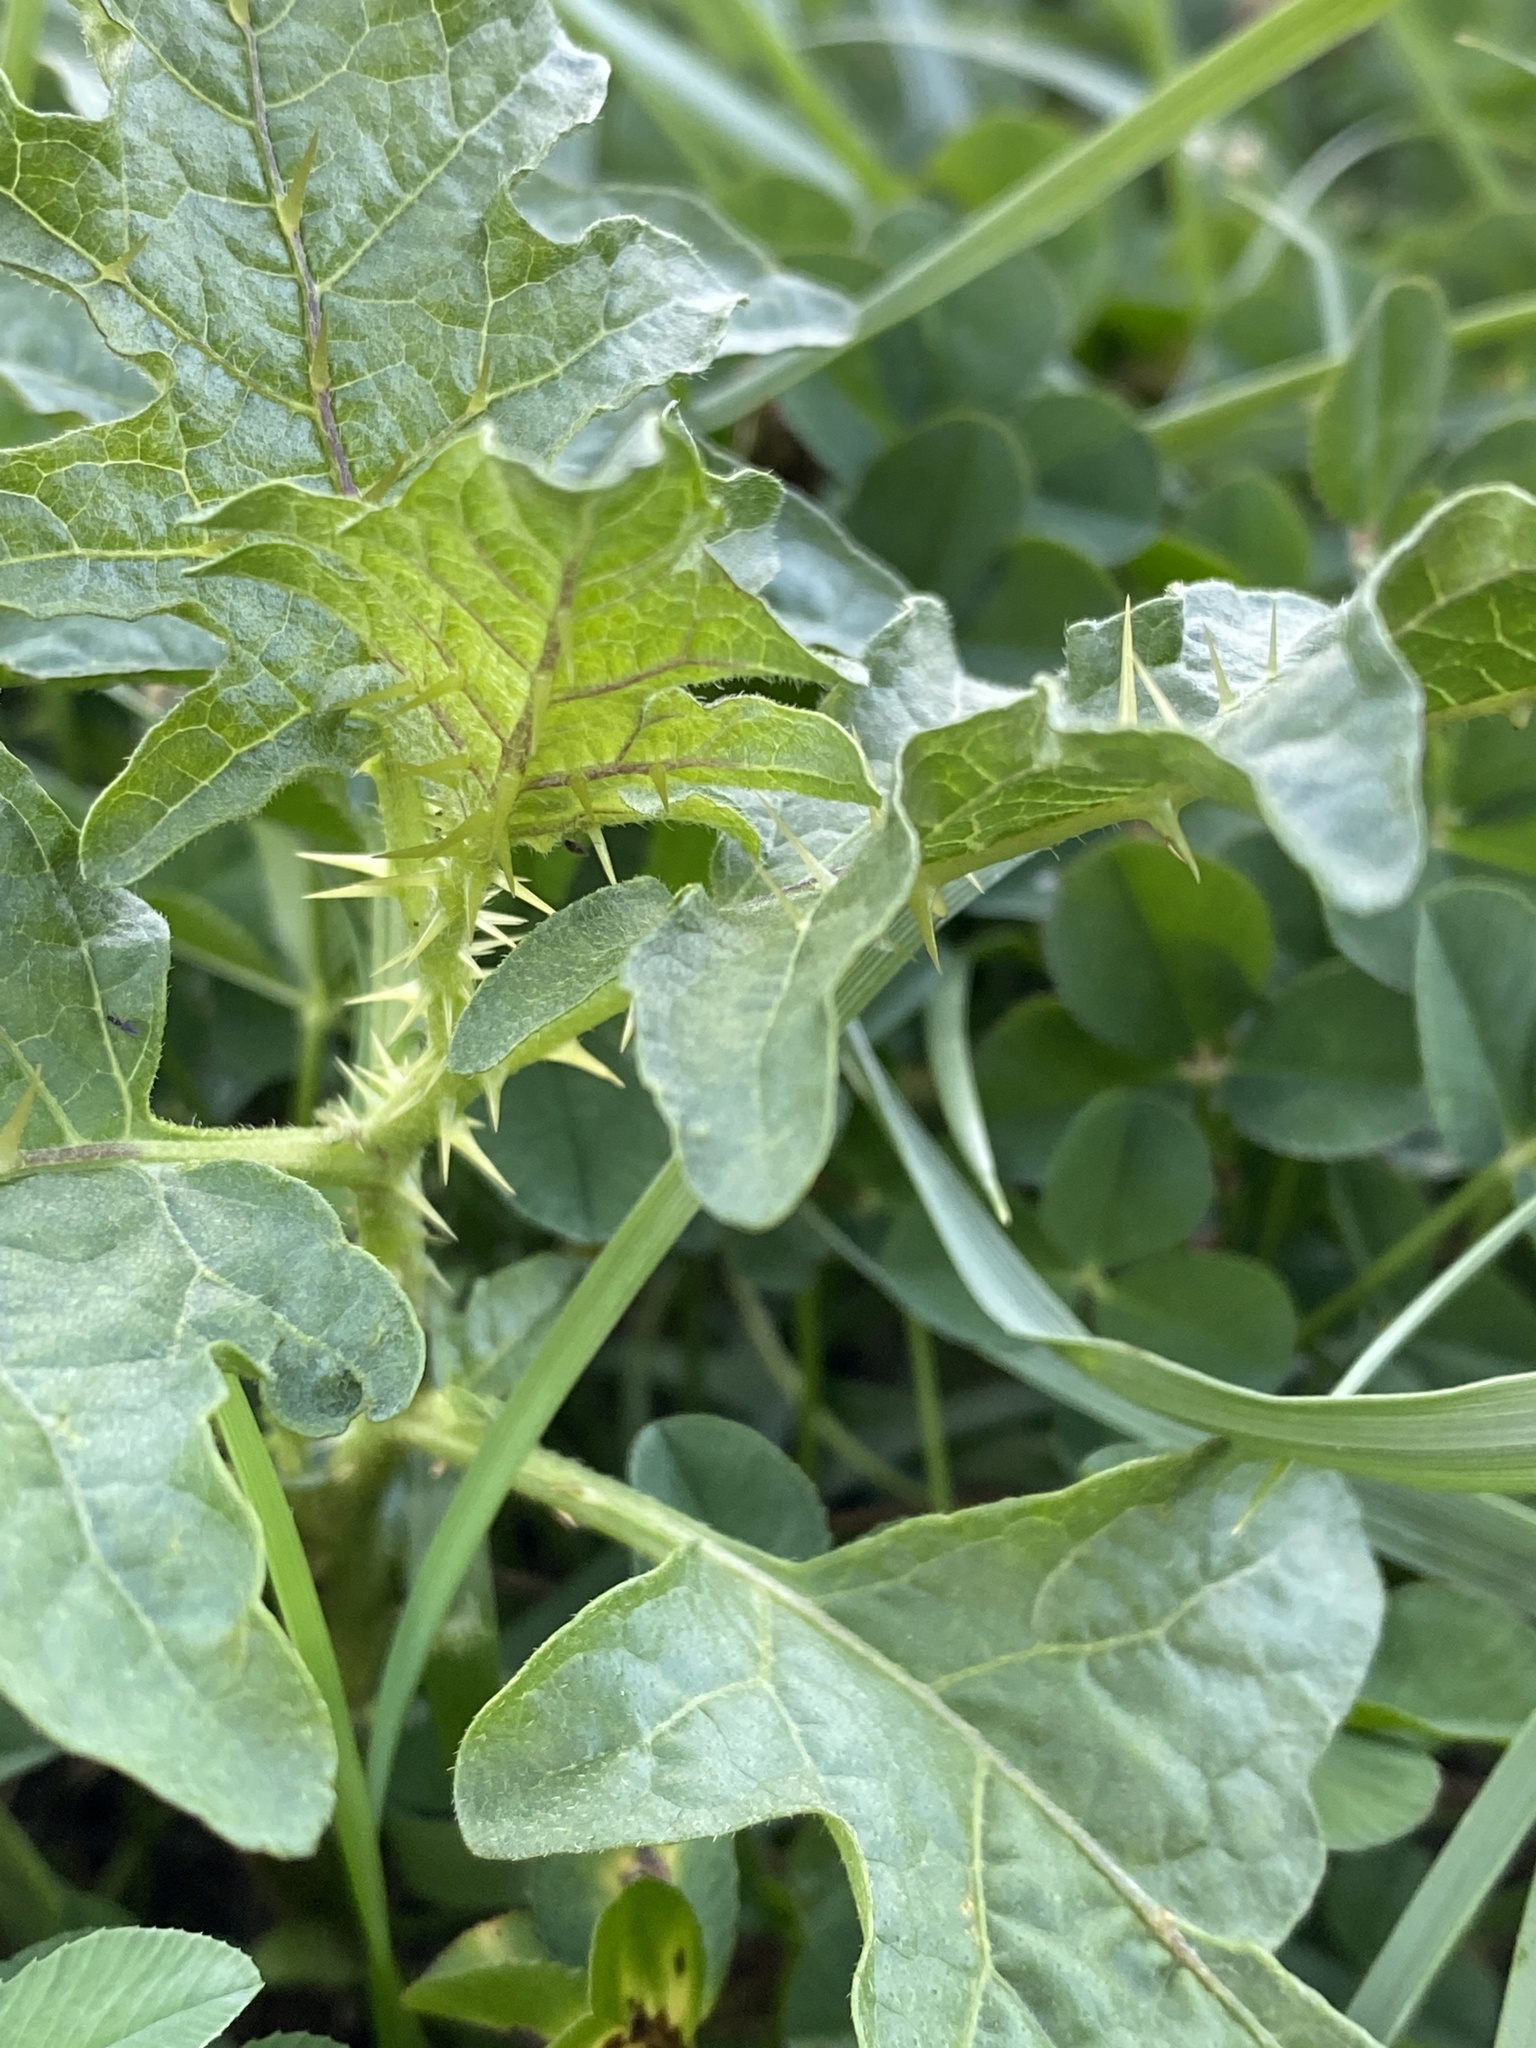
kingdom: Plantae
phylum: Tracheophyta
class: Magnoliopsida
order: Solanales
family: Solanaceae
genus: Solanum
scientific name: Solanum carolinense
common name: Horse-nettle
